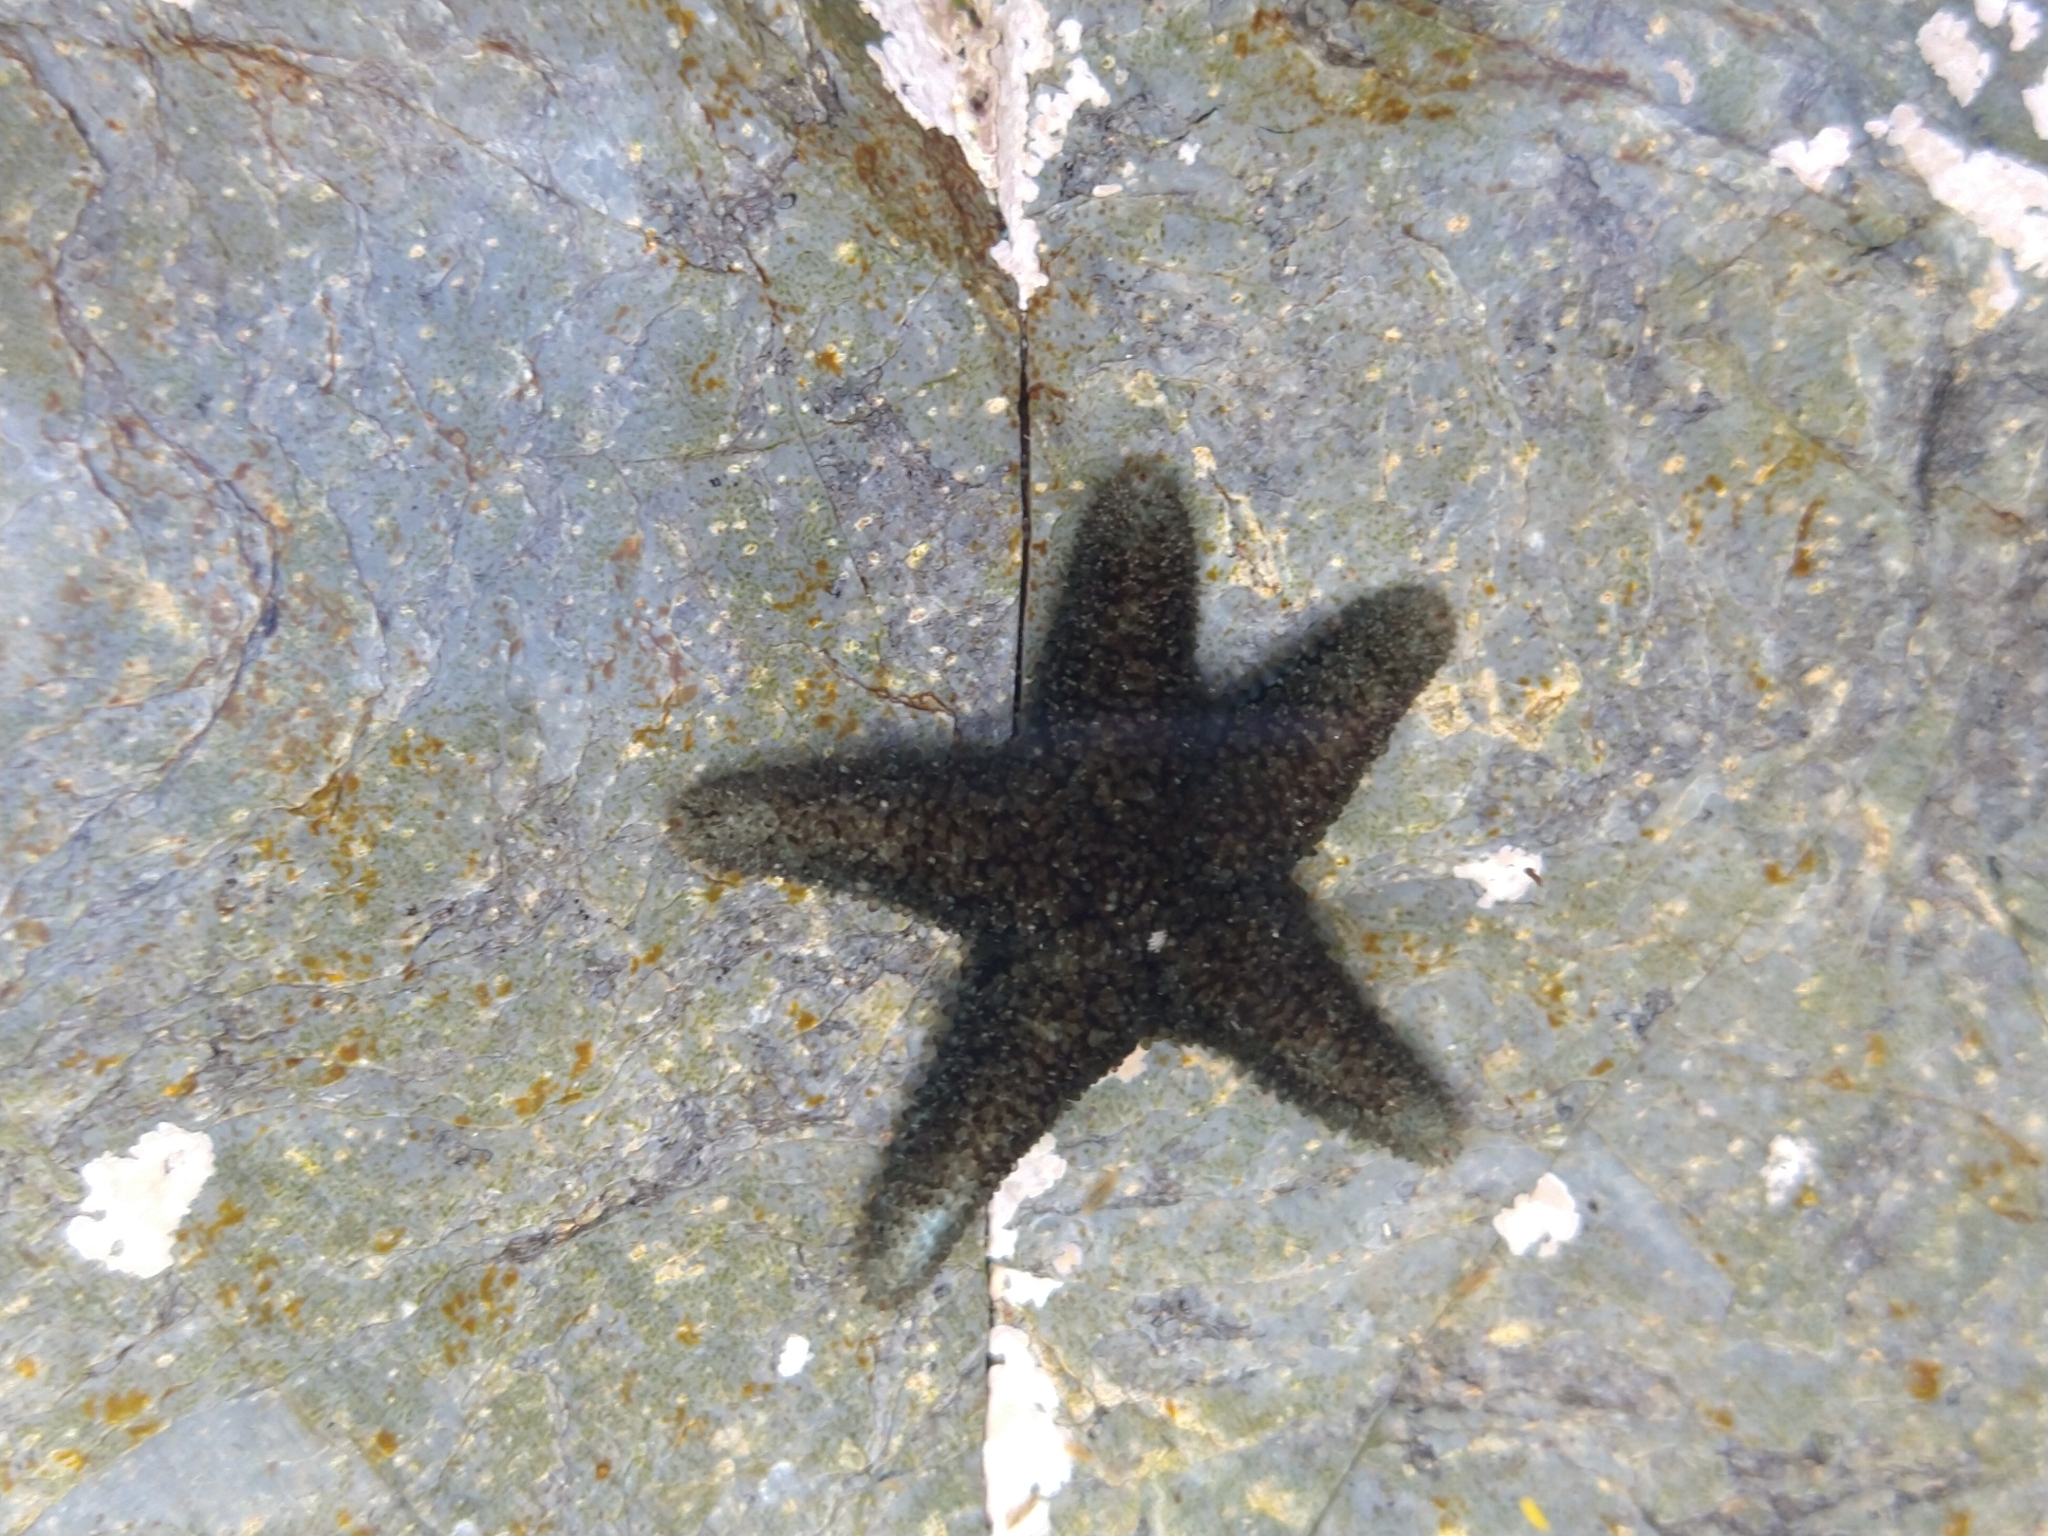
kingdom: Animalia
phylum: Echinodermata
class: Asteroidea
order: Forcipulatida
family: Asteriidae
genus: Anasterias
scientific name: Anasterias antarctica
